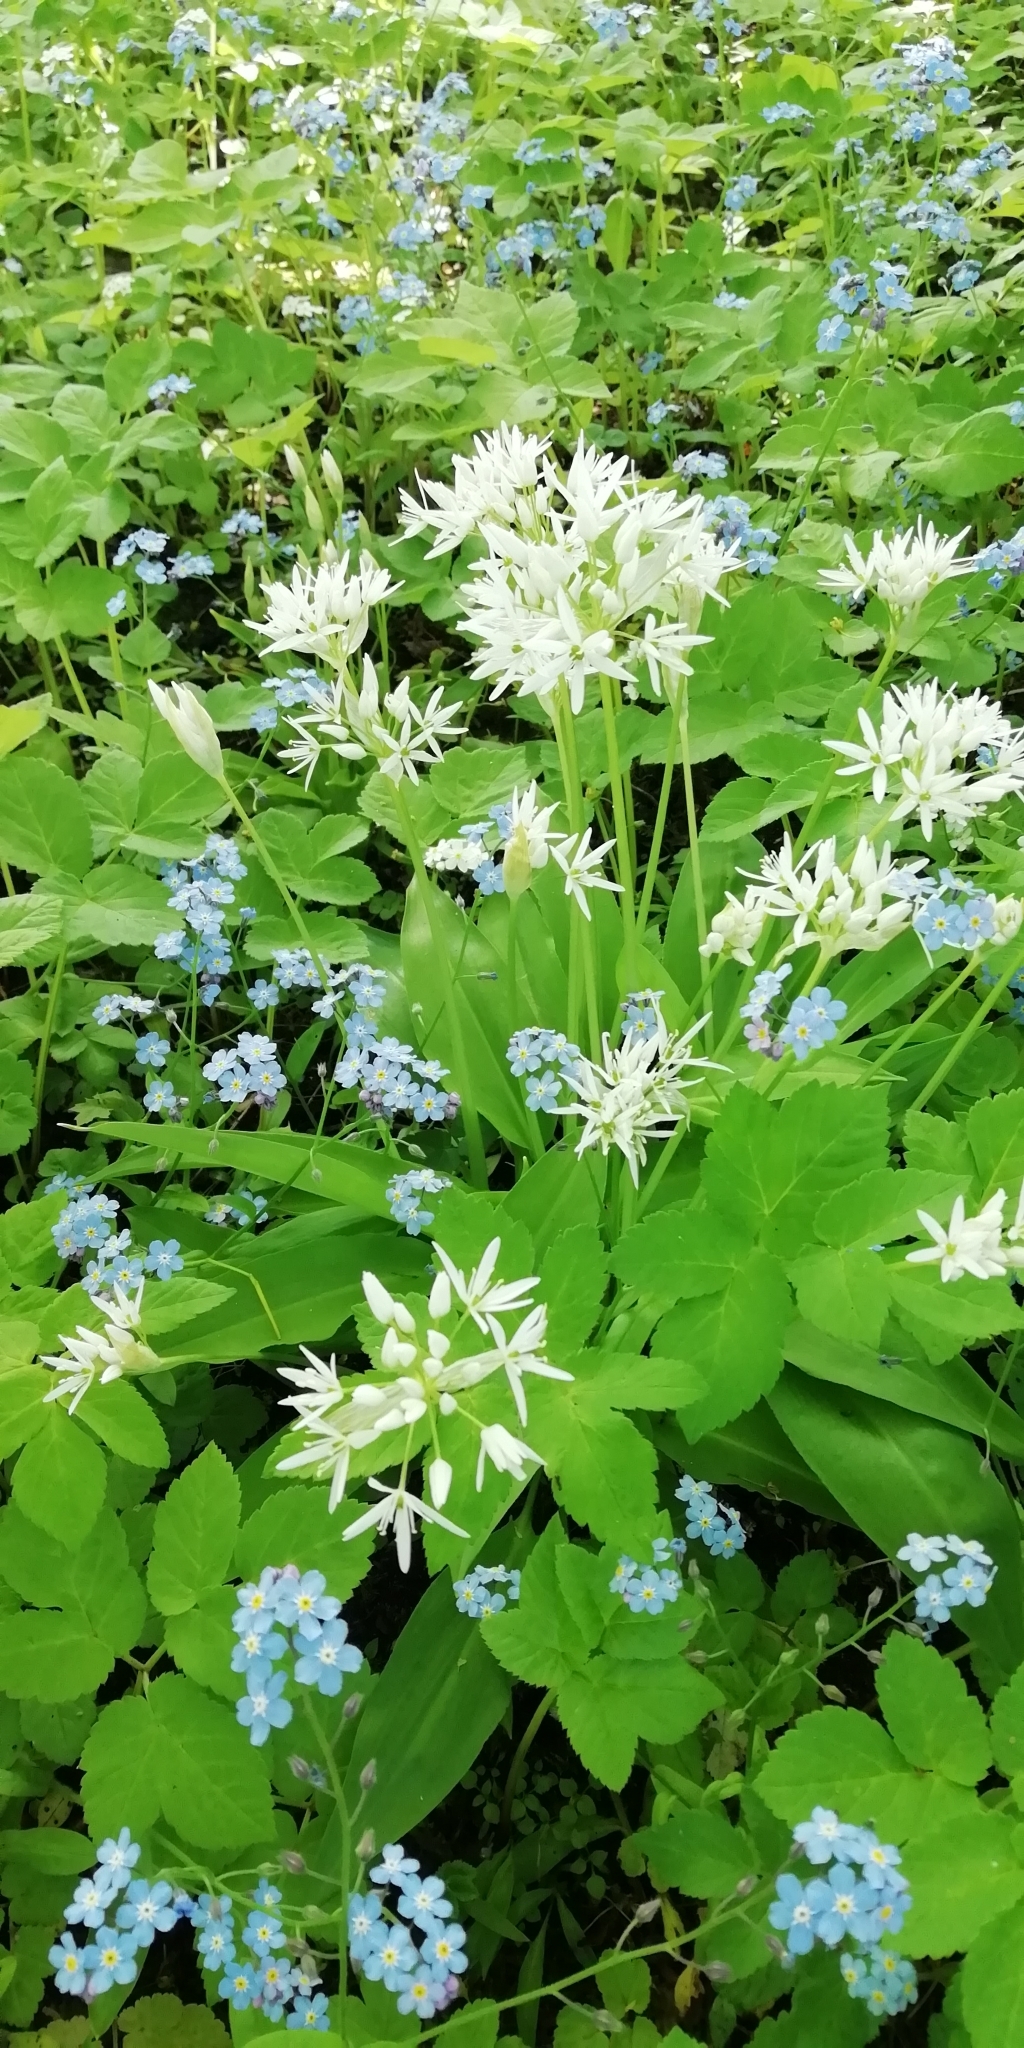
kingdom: Plantae
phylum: Tracheophyta
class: Liliopsida
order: Asparagales
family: Amaryllidaceae
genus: Allium
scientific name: Allium ursinum
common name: Ramsons
